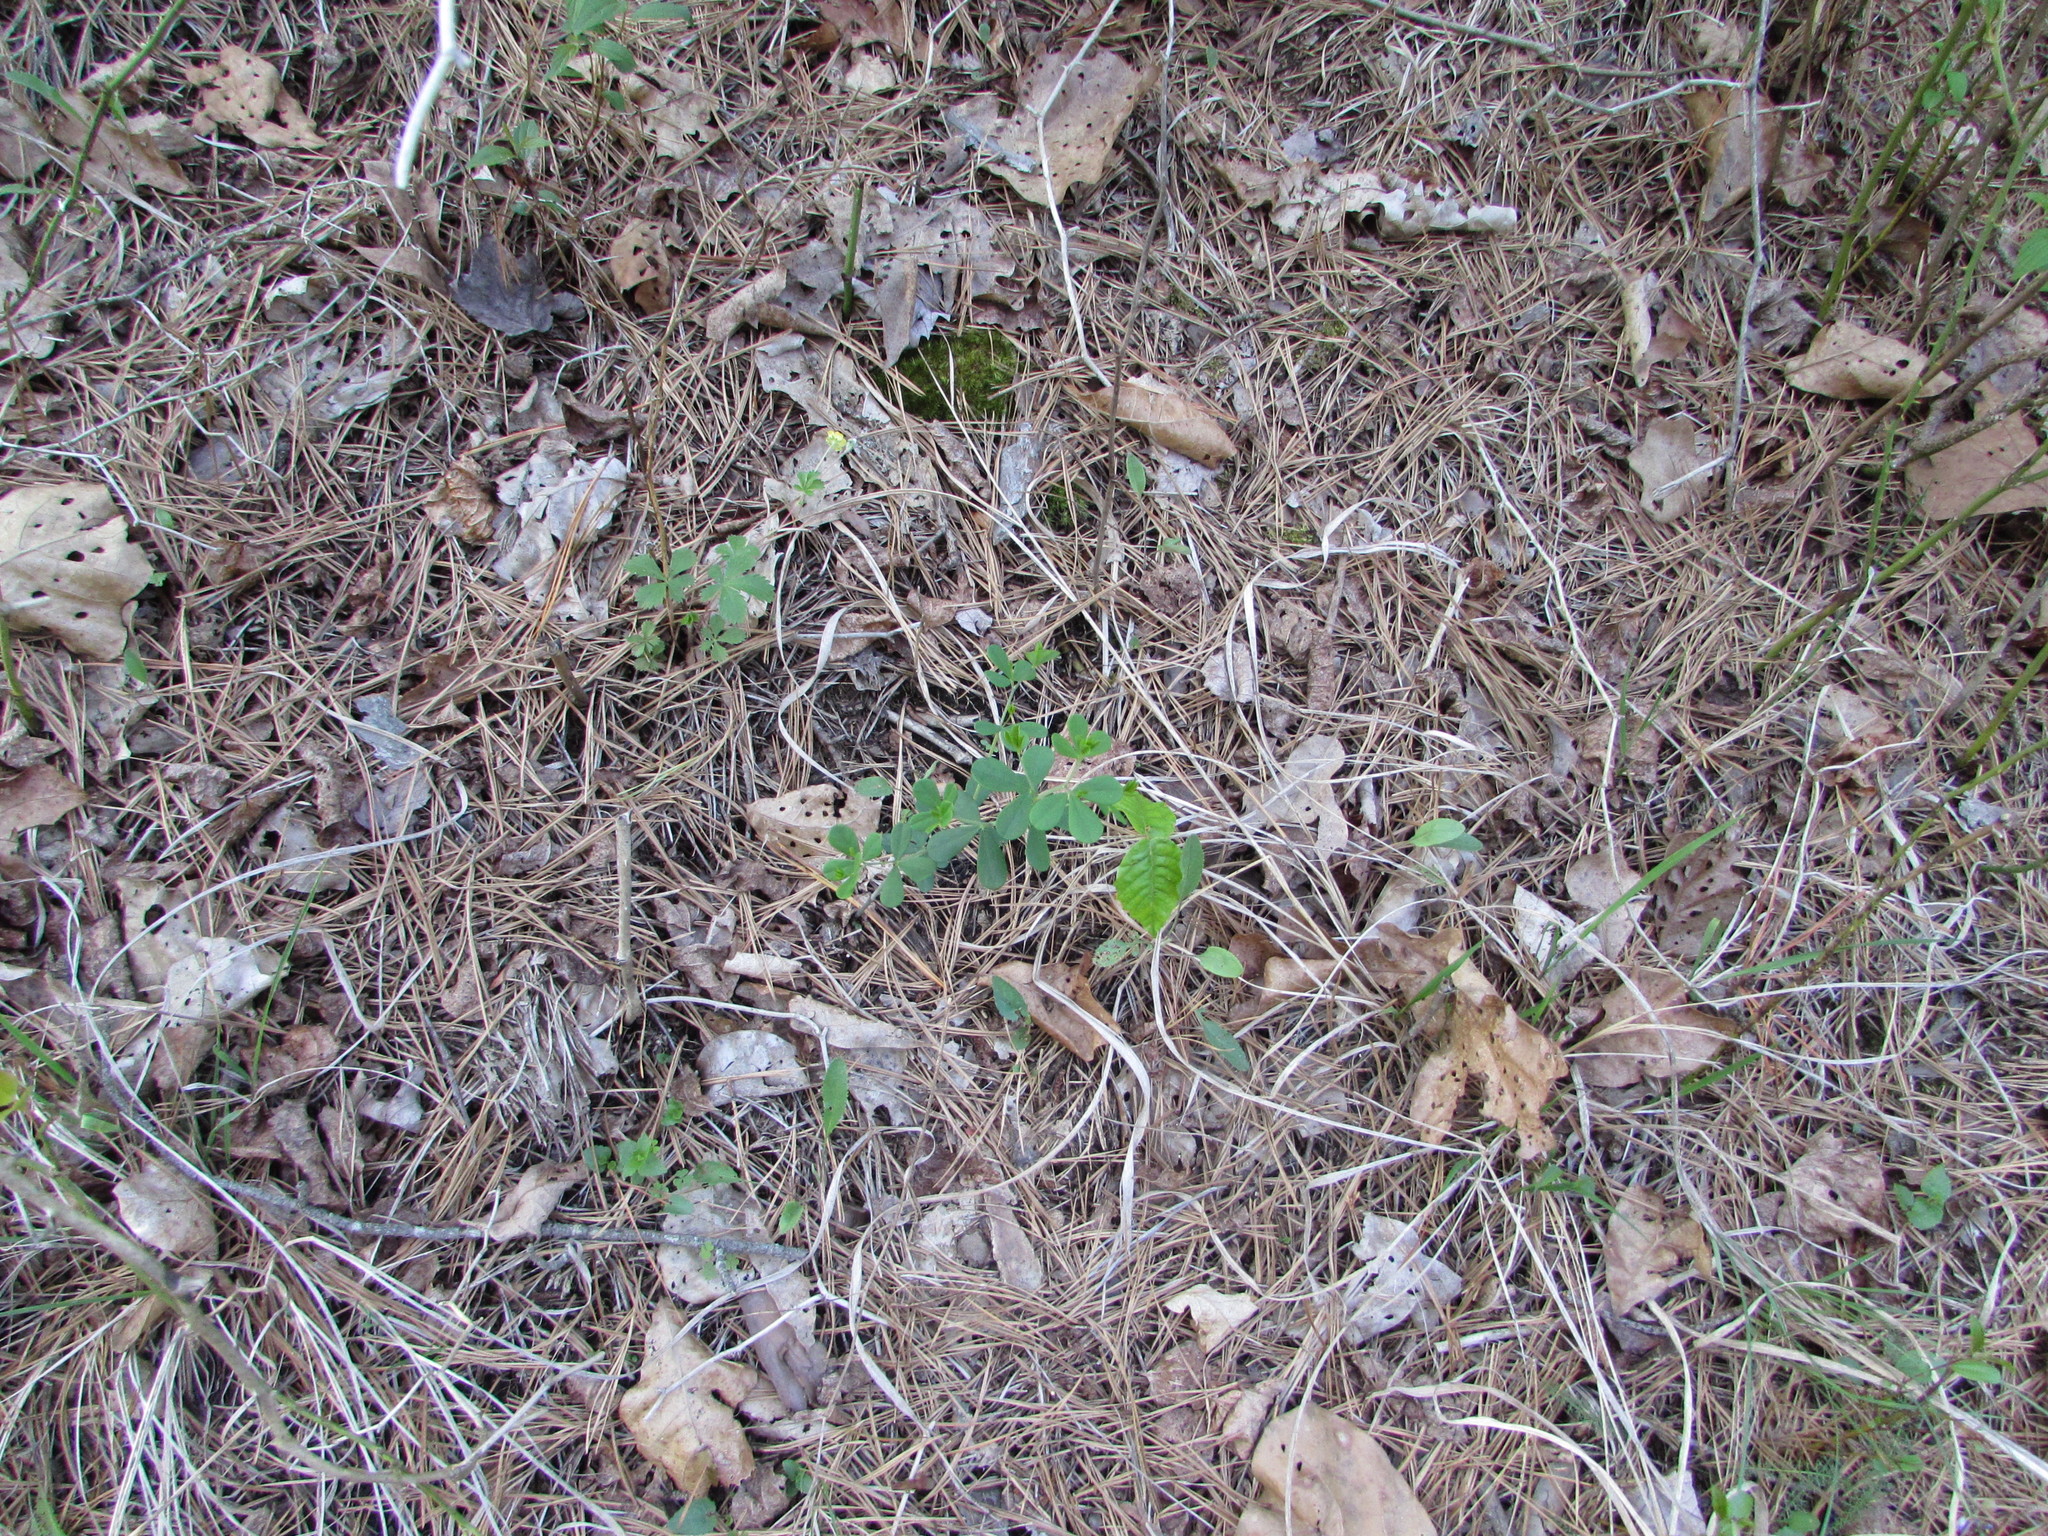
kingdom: Plantae
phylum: Tracheophyta
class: Magnoliopsida
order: Fabales
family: Fabaceae
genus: Baptisia
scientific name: Baptisia tinctoria
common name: Wild indigo
